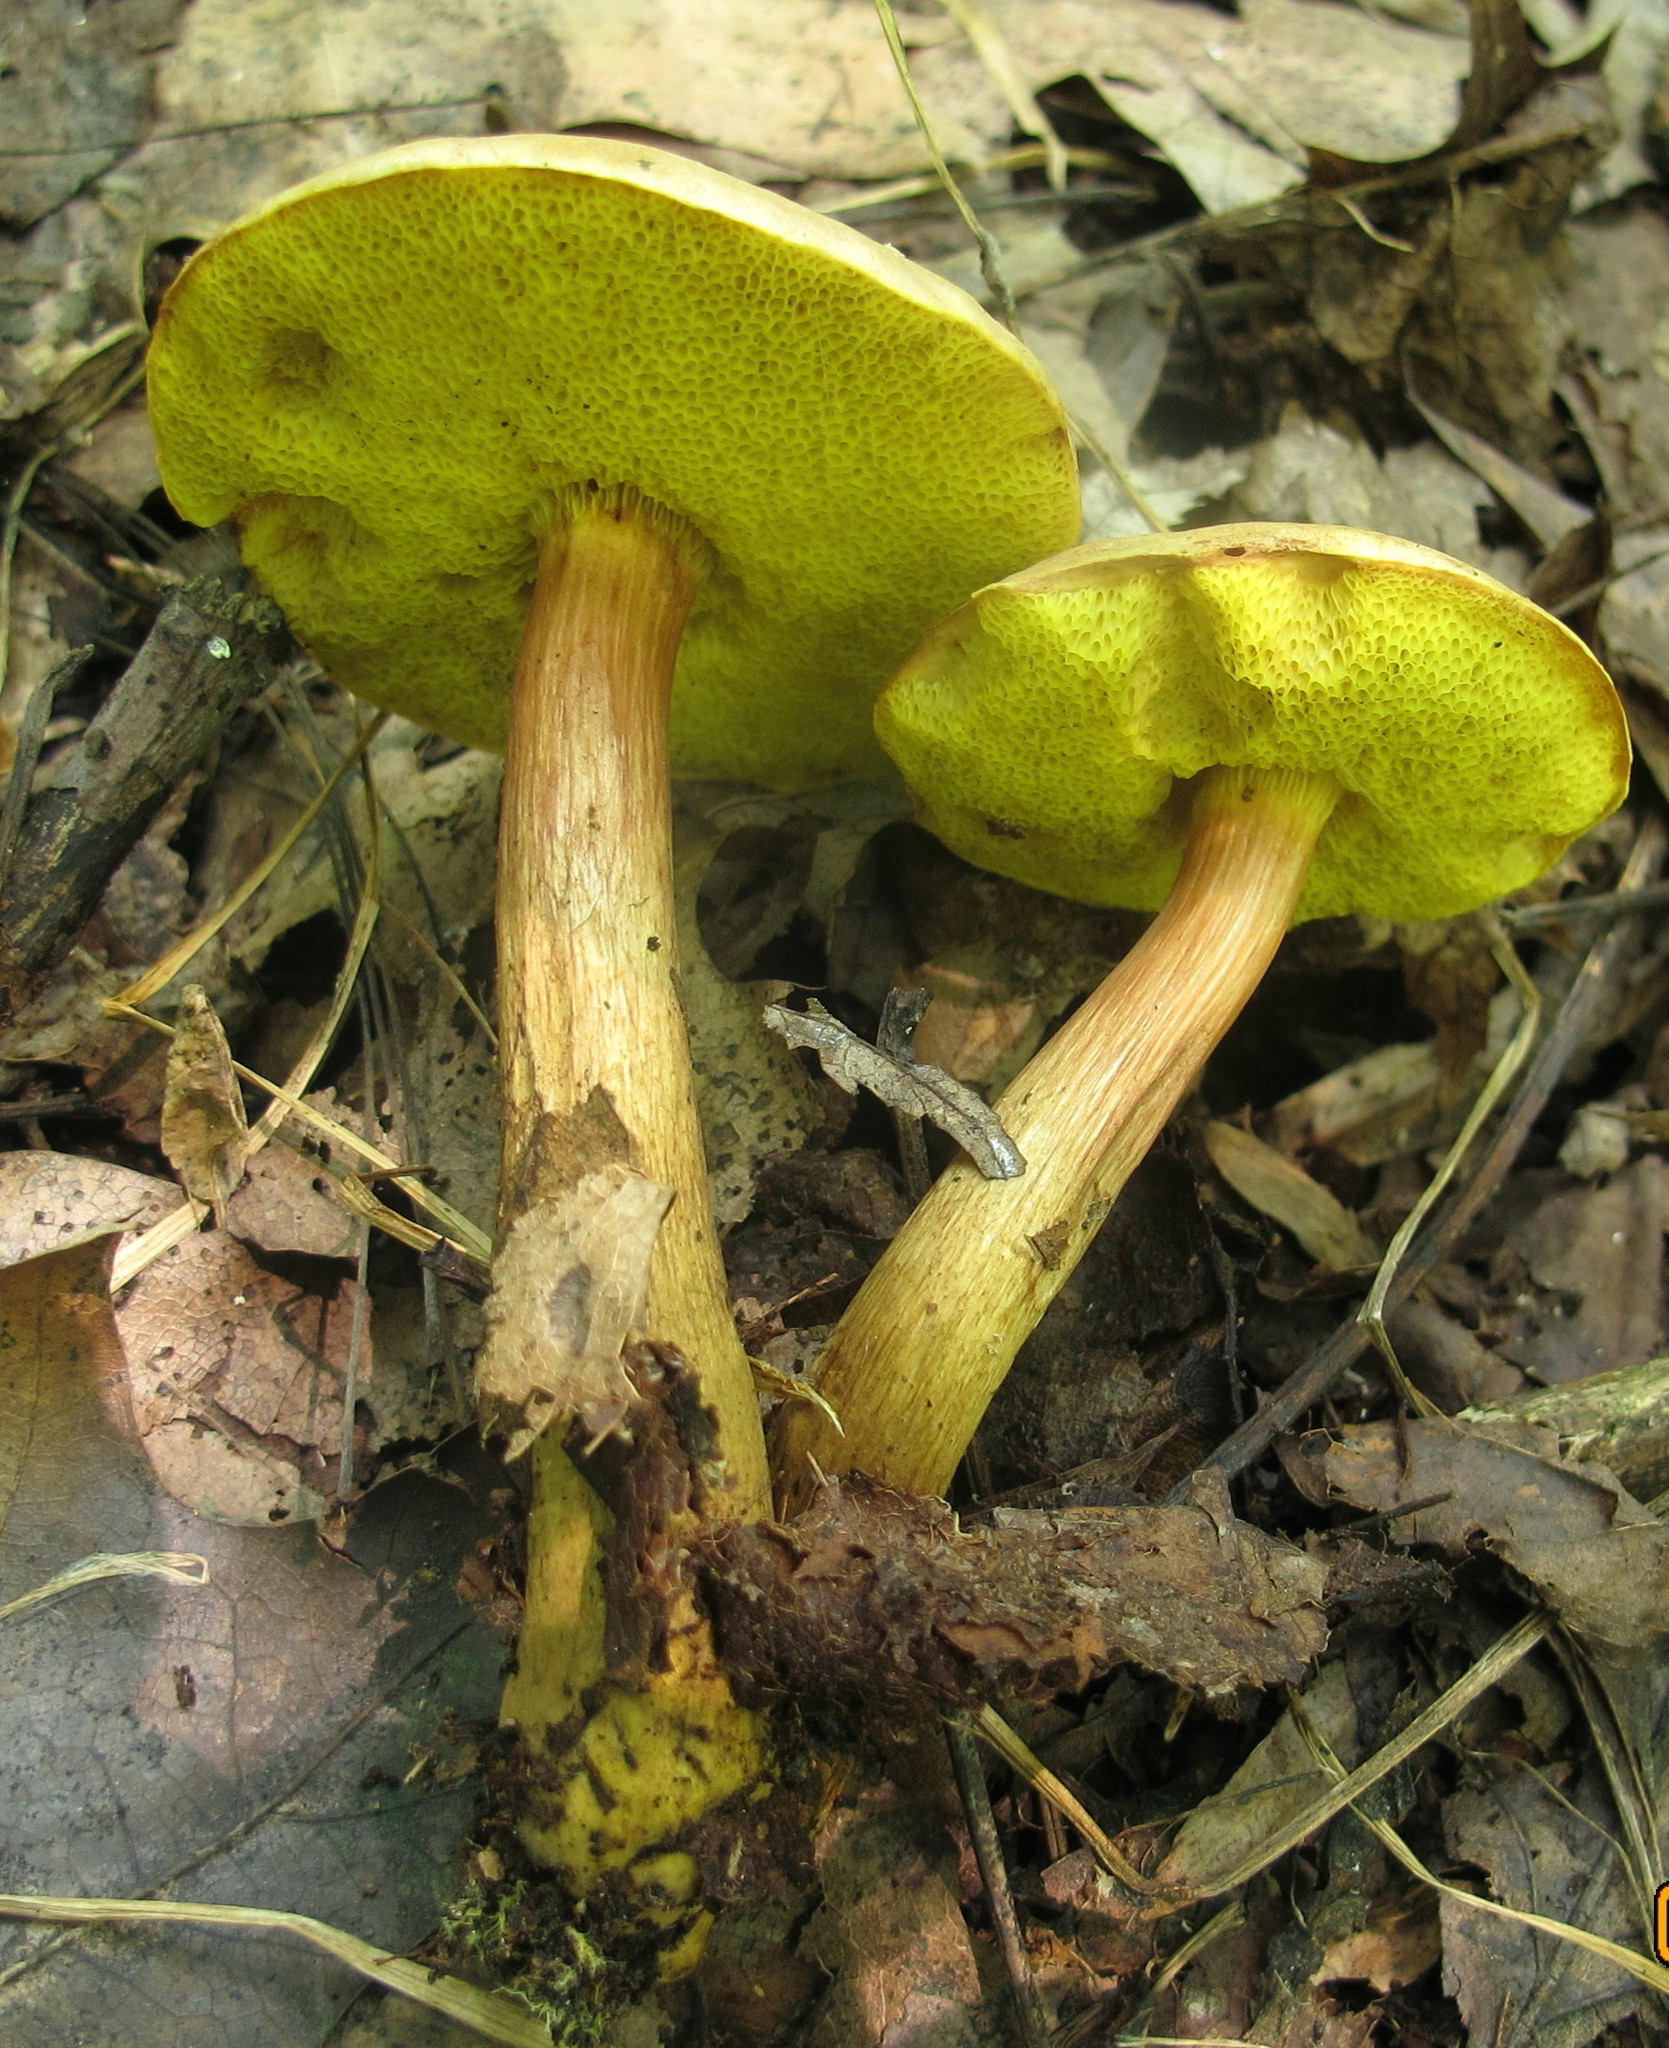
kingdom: Fungi
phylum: Basidiomycota
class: Agaricomycetes
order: Boletales
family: Boletaceae
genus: Aureoboletus
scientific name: Aureoboletus innixus
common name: Clustered brown bolete
